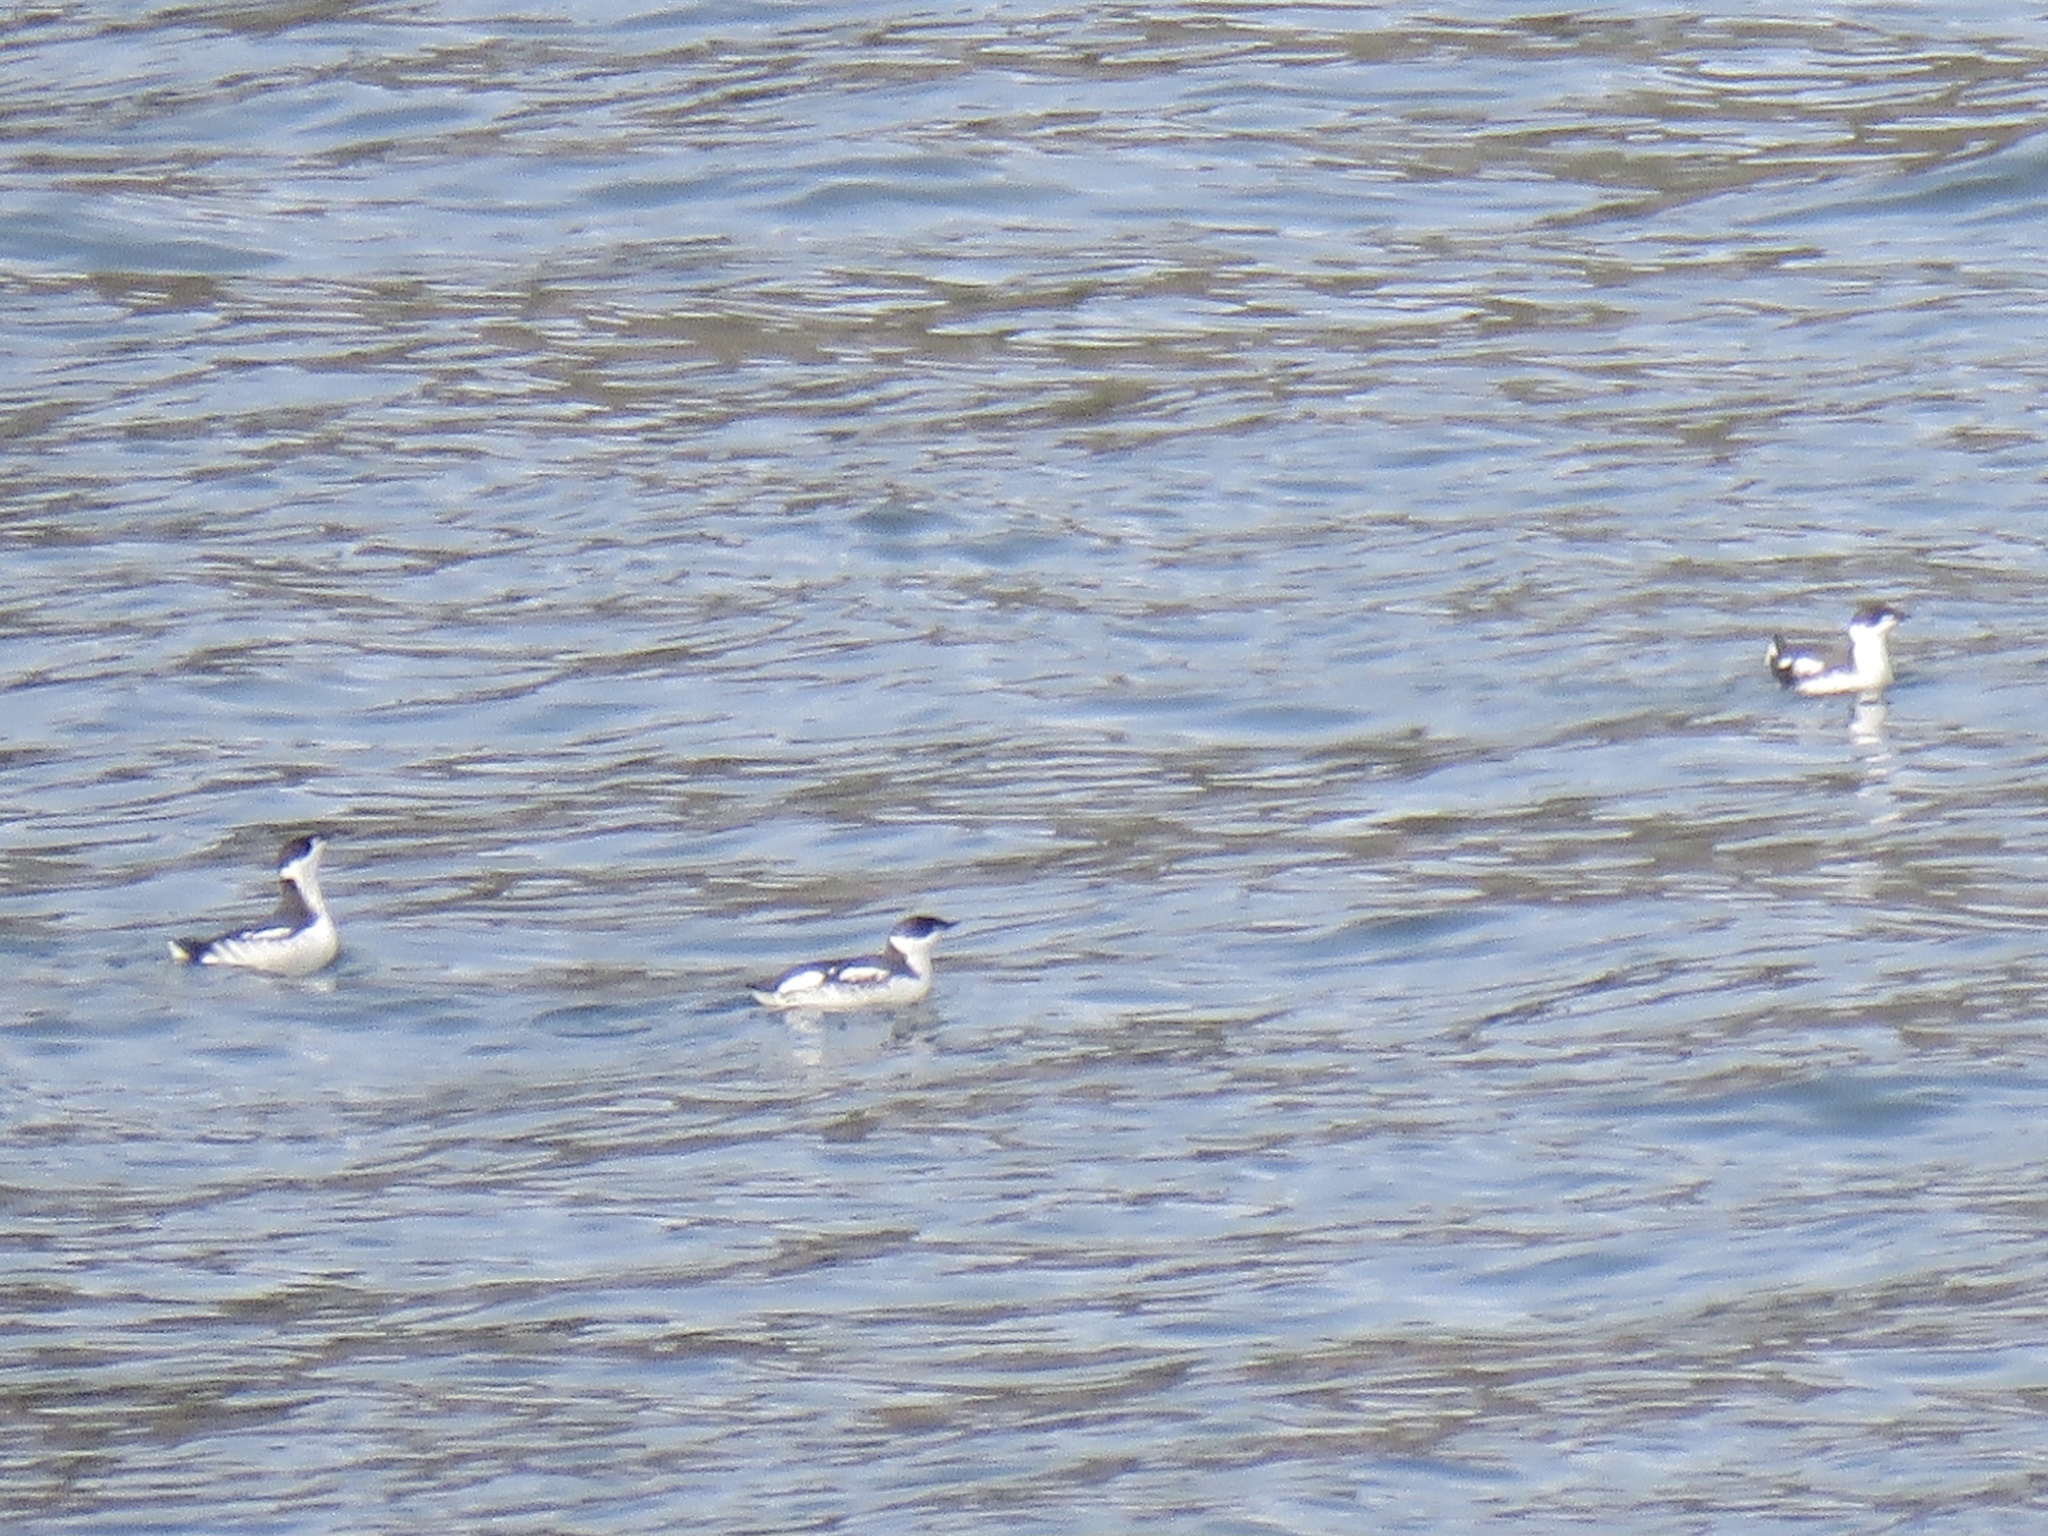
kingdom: Animalia
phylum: Chordata
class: Aves
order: Charadriiformes
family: Alcidae
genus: Brachyramphus
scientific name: Brachyramphus marmoratus
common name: Marbled murrelet
